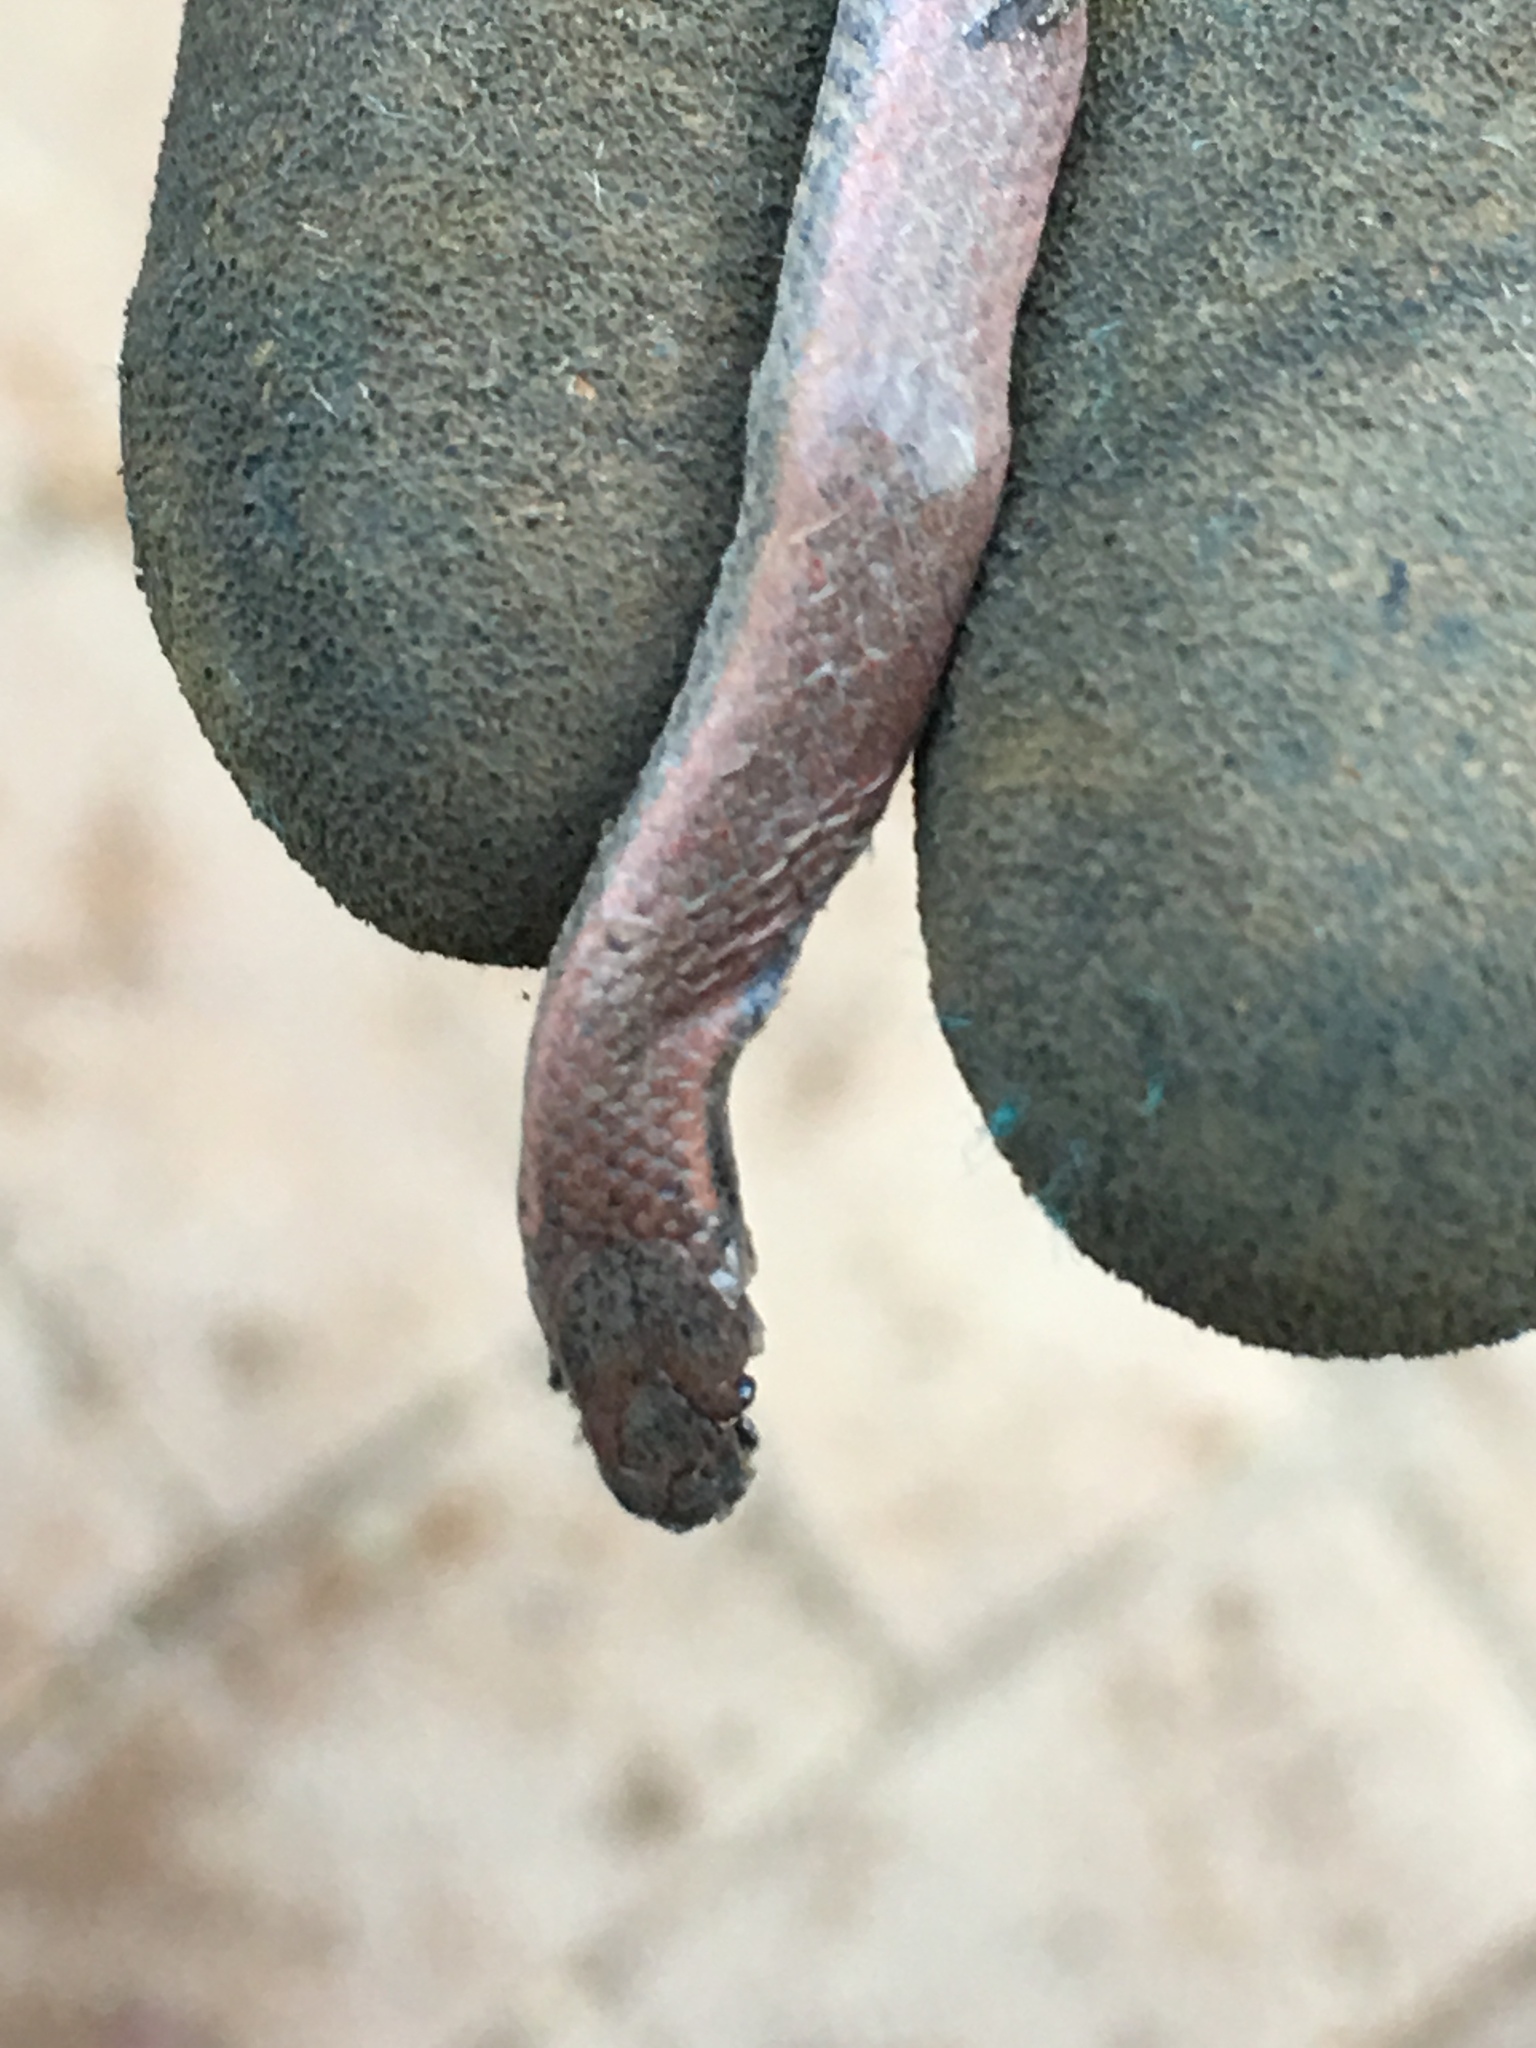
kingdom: Animalia
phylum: Chordata
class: Squamata
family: Colubridae
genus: Contia
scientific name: Contia tenuis
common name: Sharptail snake
